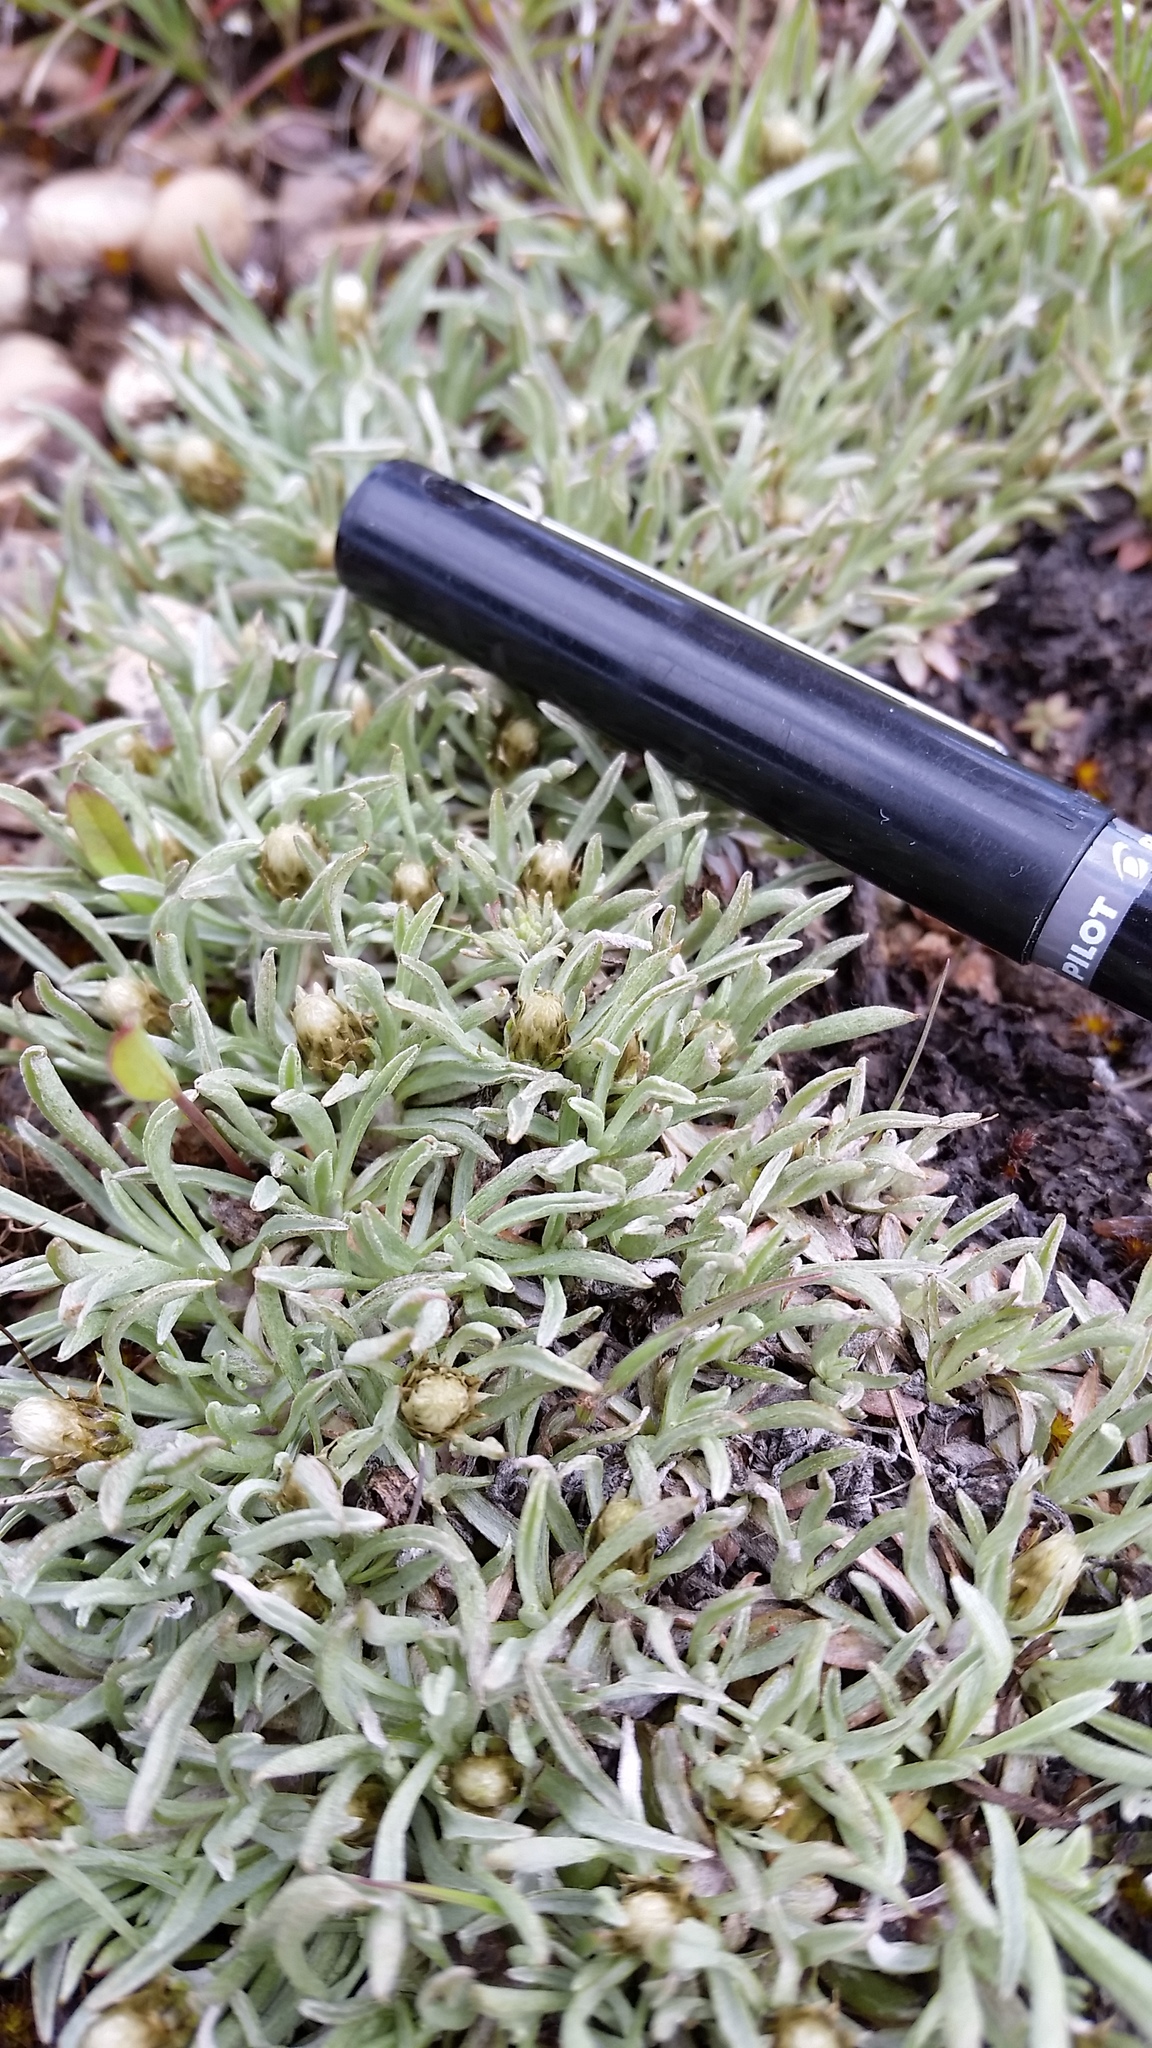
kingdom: Plantae
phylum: Tracheophyta
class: Magnoliopsida
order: Asterales
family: Asteraceae
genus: Antennaria
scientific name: Antennaria dimorpha
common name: Cushion pussytoes
